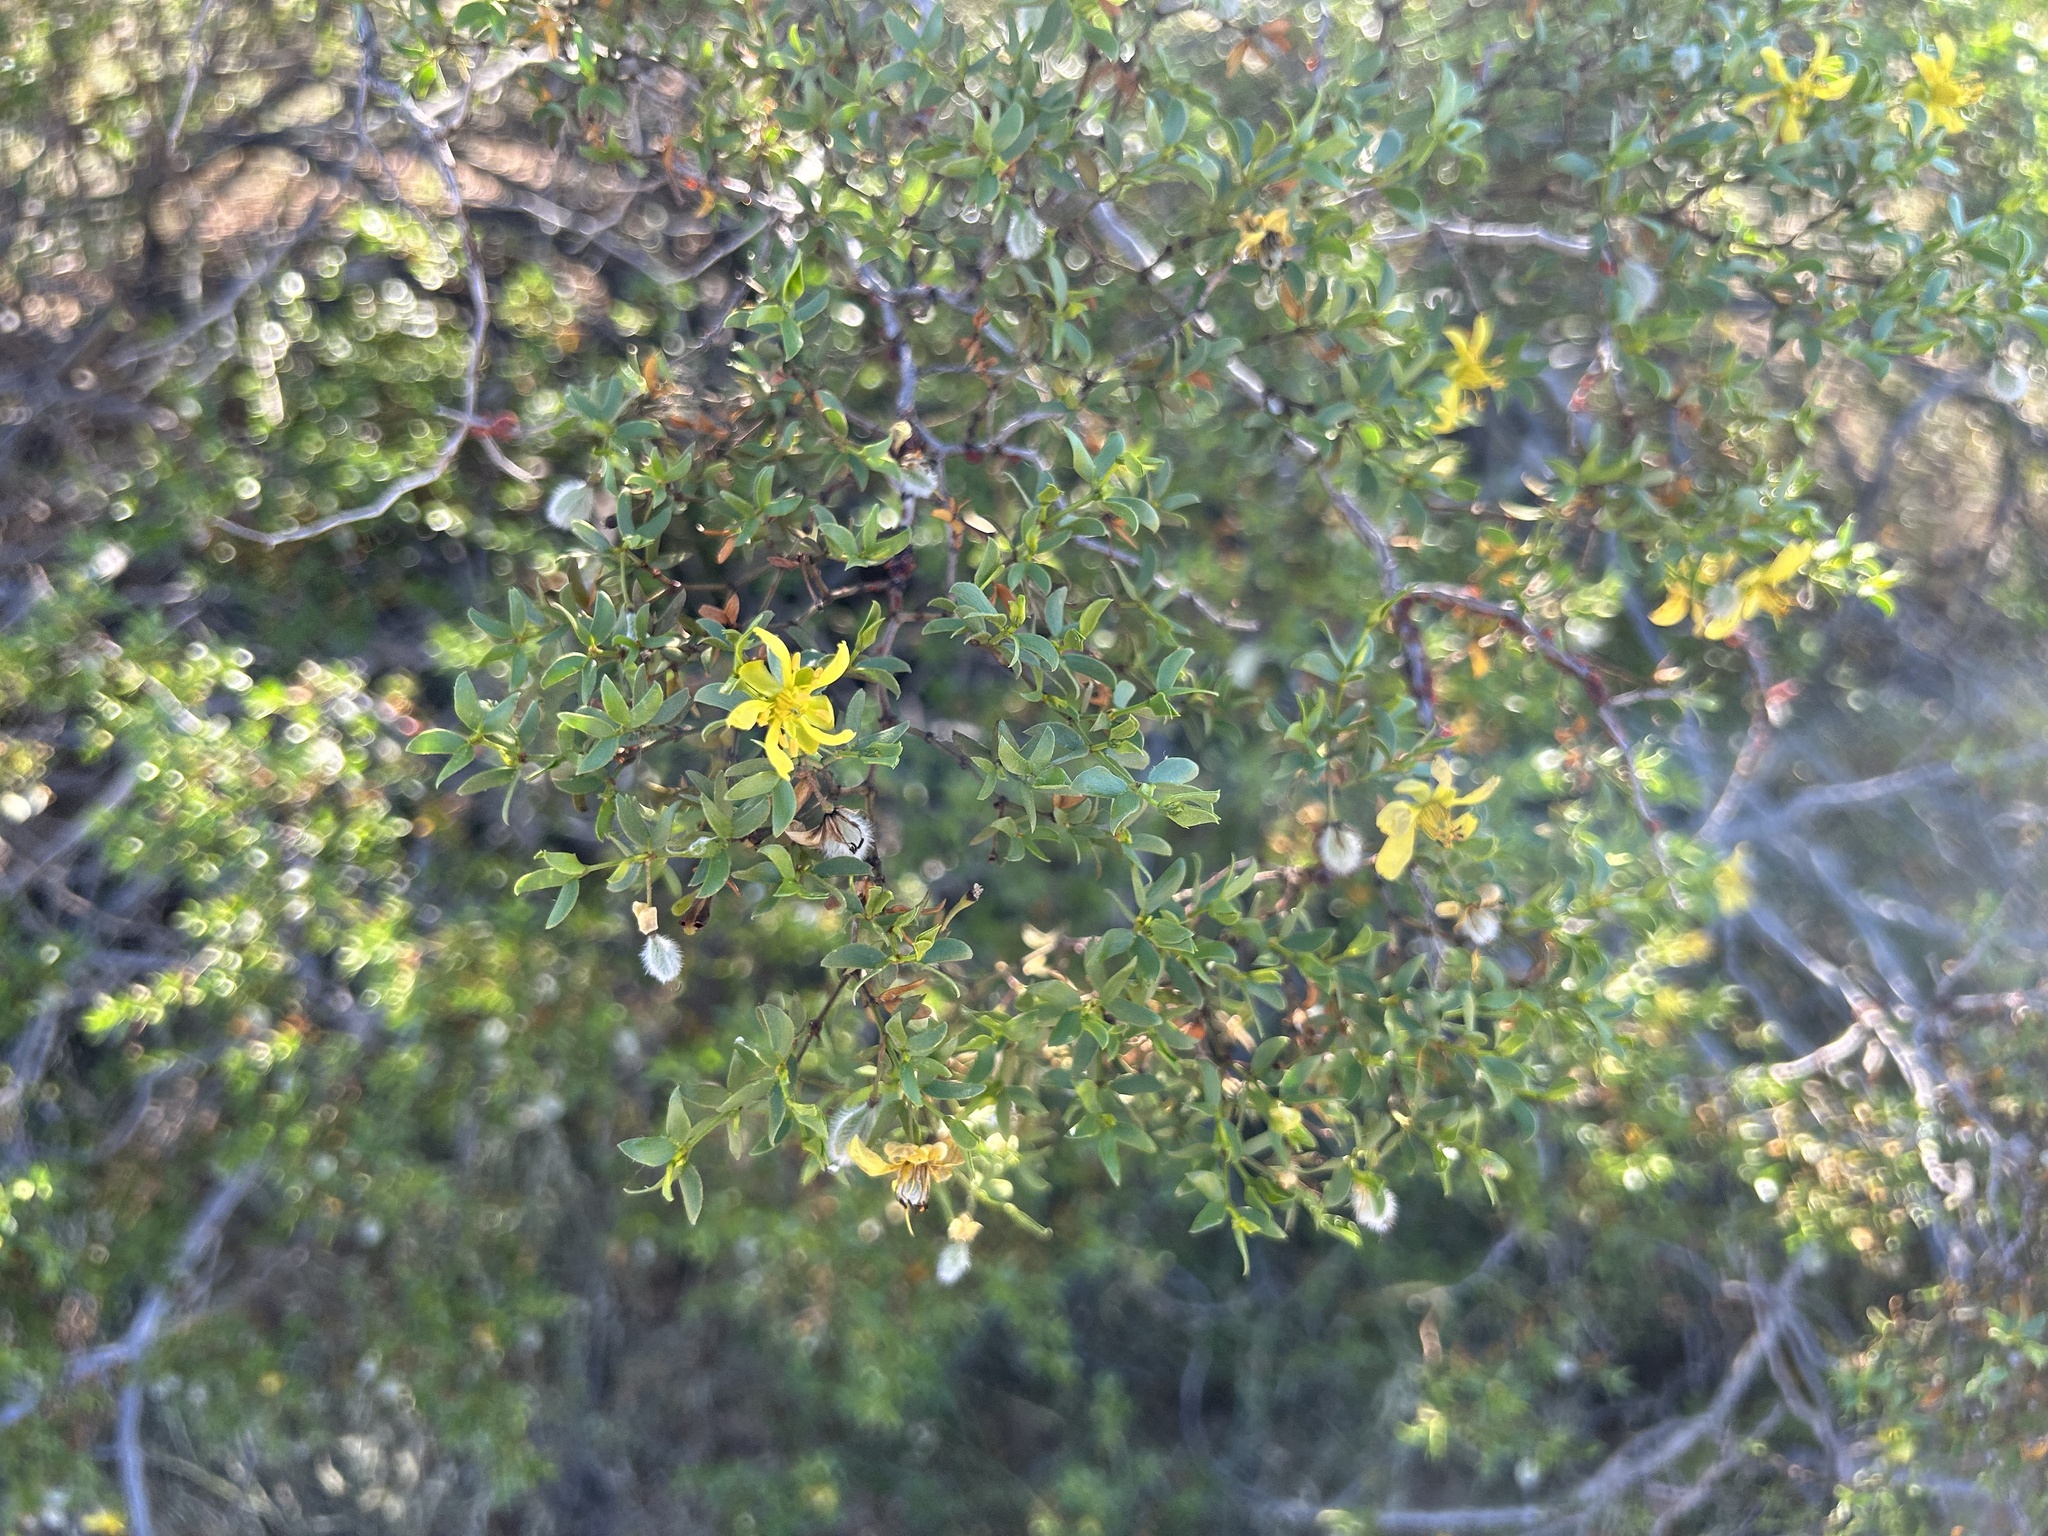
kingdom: Plantae
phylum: Tracheophyta
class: Magnoliopsida
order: Zygophyllales
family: Zygophyllaceae
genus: Larrea
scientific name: Larrea tridentata
